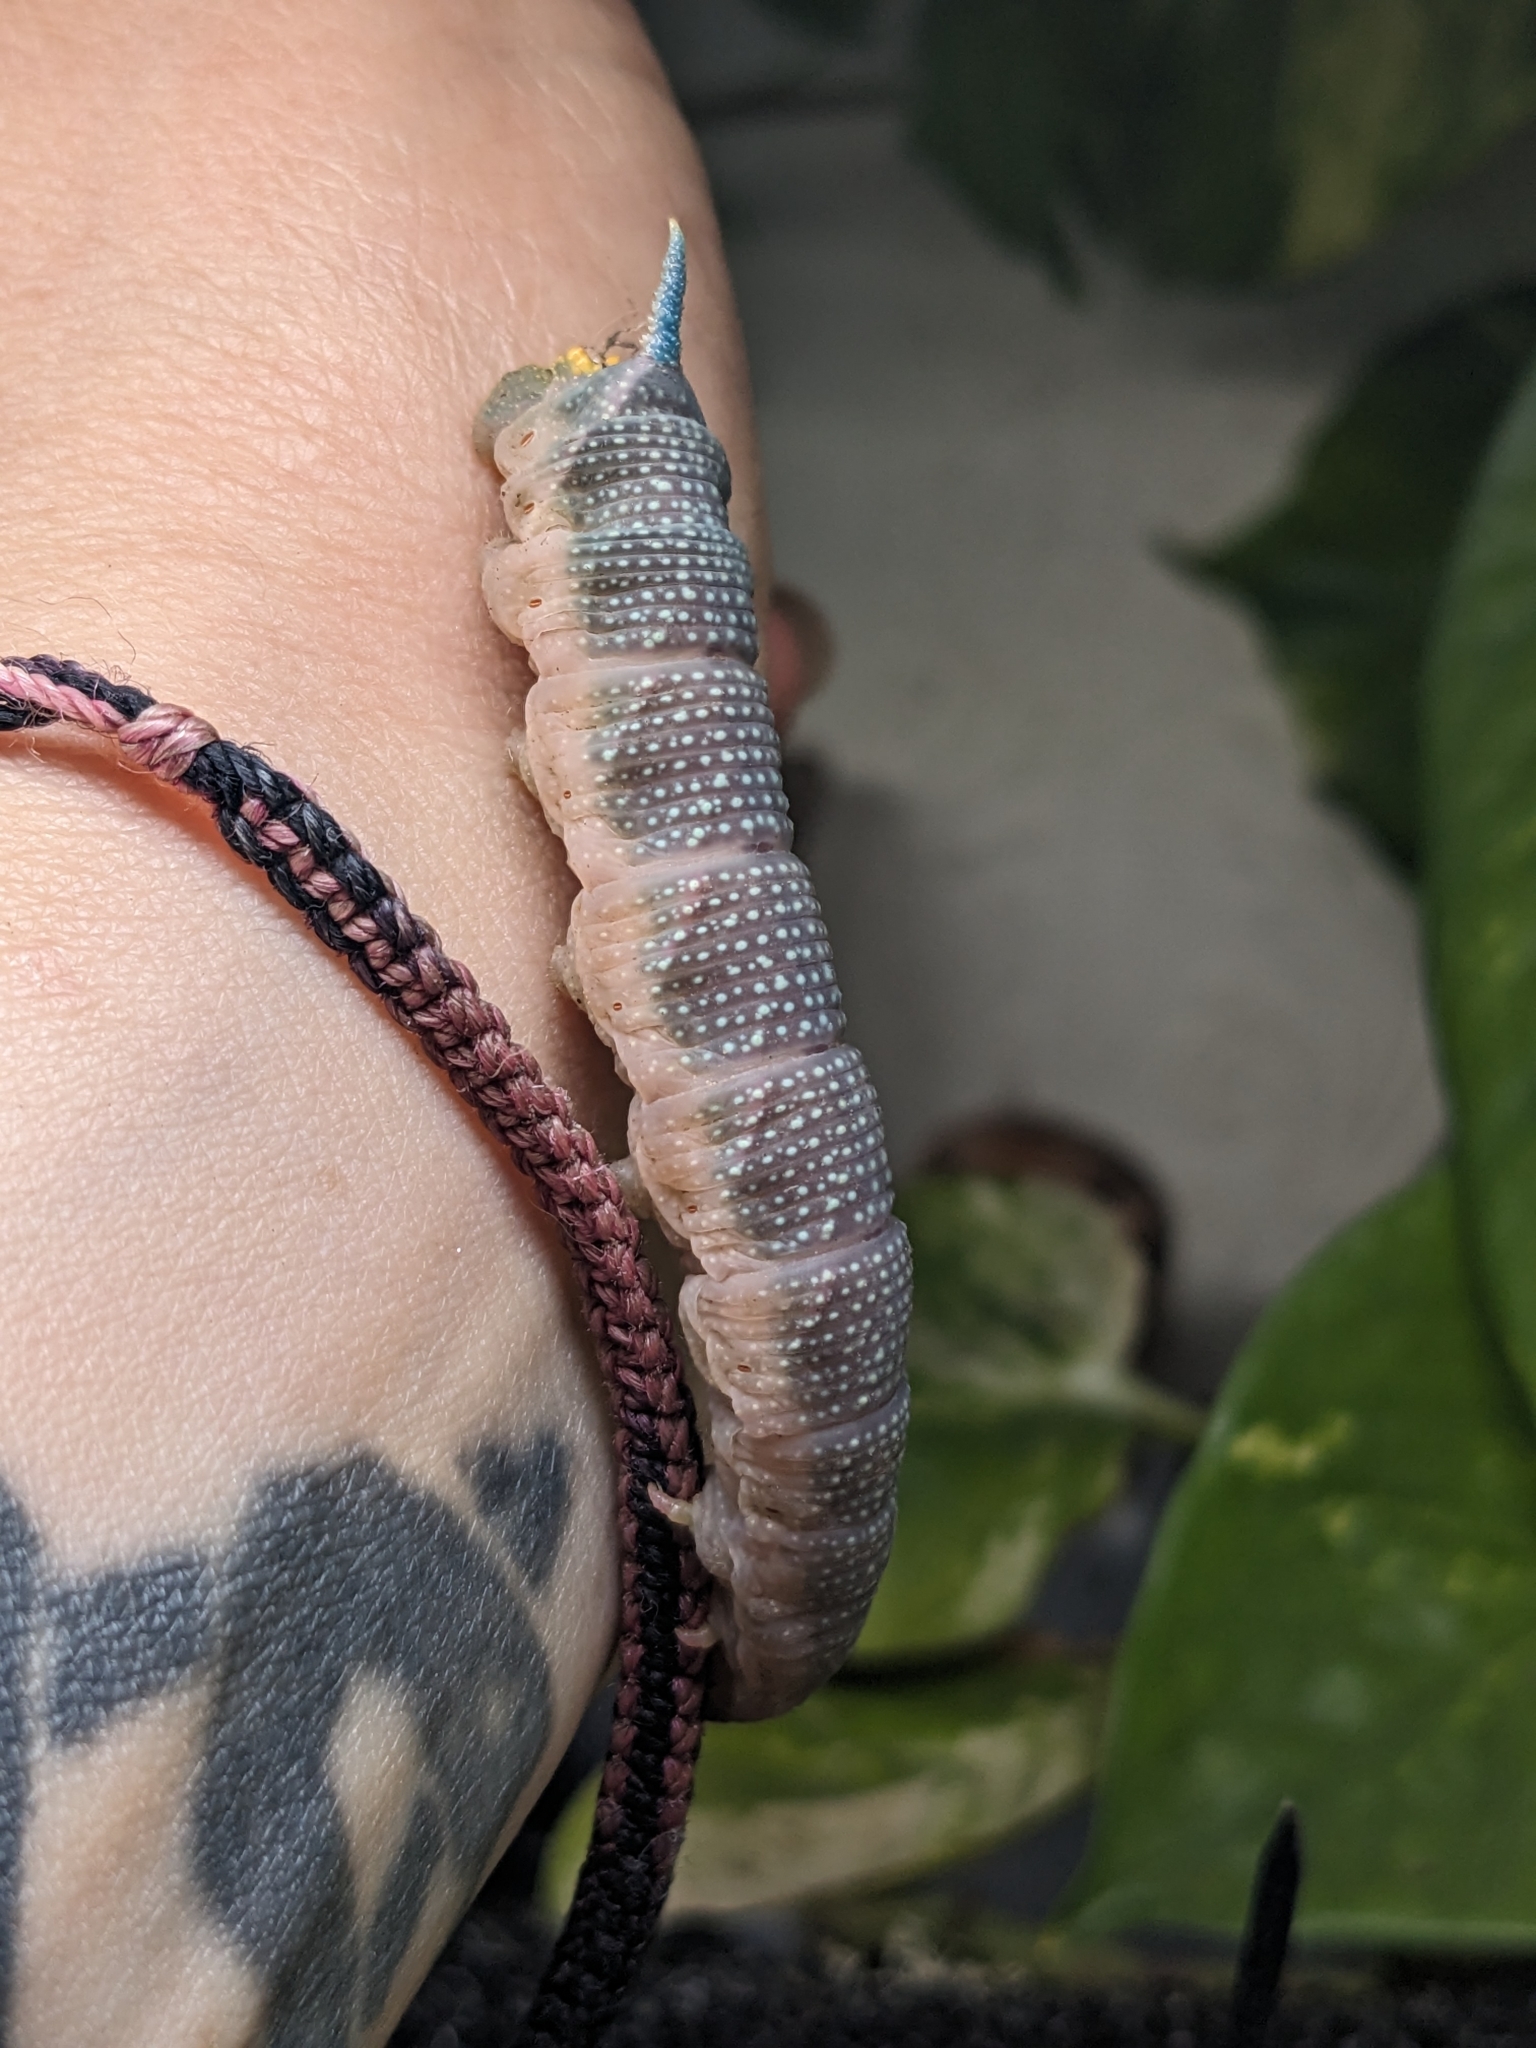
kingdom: Animalia
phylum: Arthropoda
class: Insecta
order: Lepidoptera
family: Sphingidae
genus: Mimas
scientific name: Mimas tiliae
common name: Lime hawk-moth
